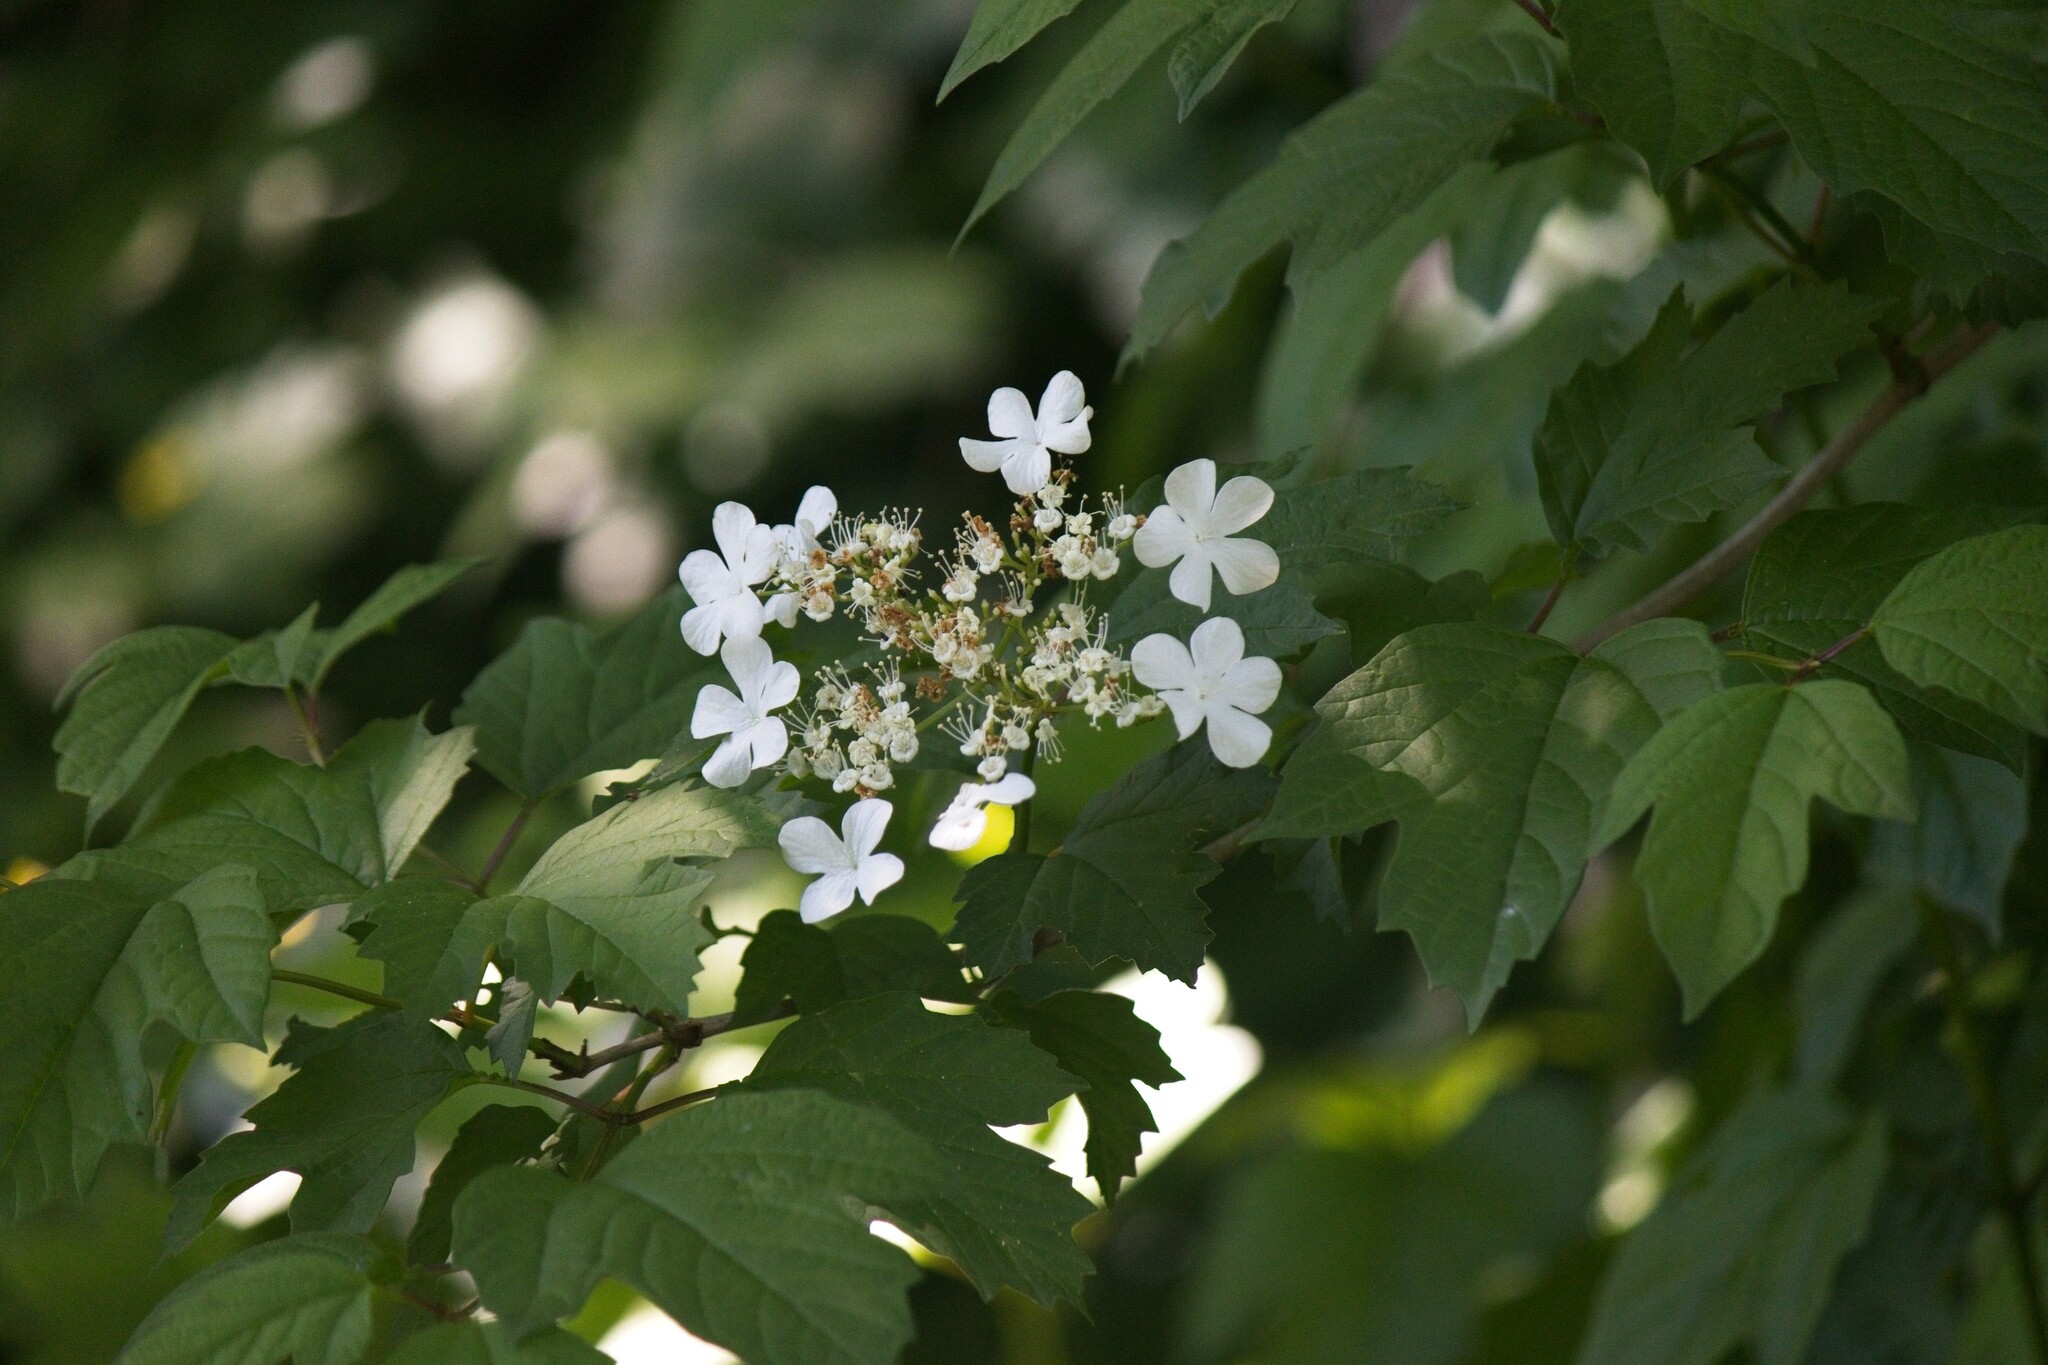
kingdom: Plantae
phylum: Tracheophyta
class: Magnoliopsida
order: Dipsacales
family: Viburnaceae
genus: Viburnum
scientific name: Viburnum opulus
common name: Guelder-rose
